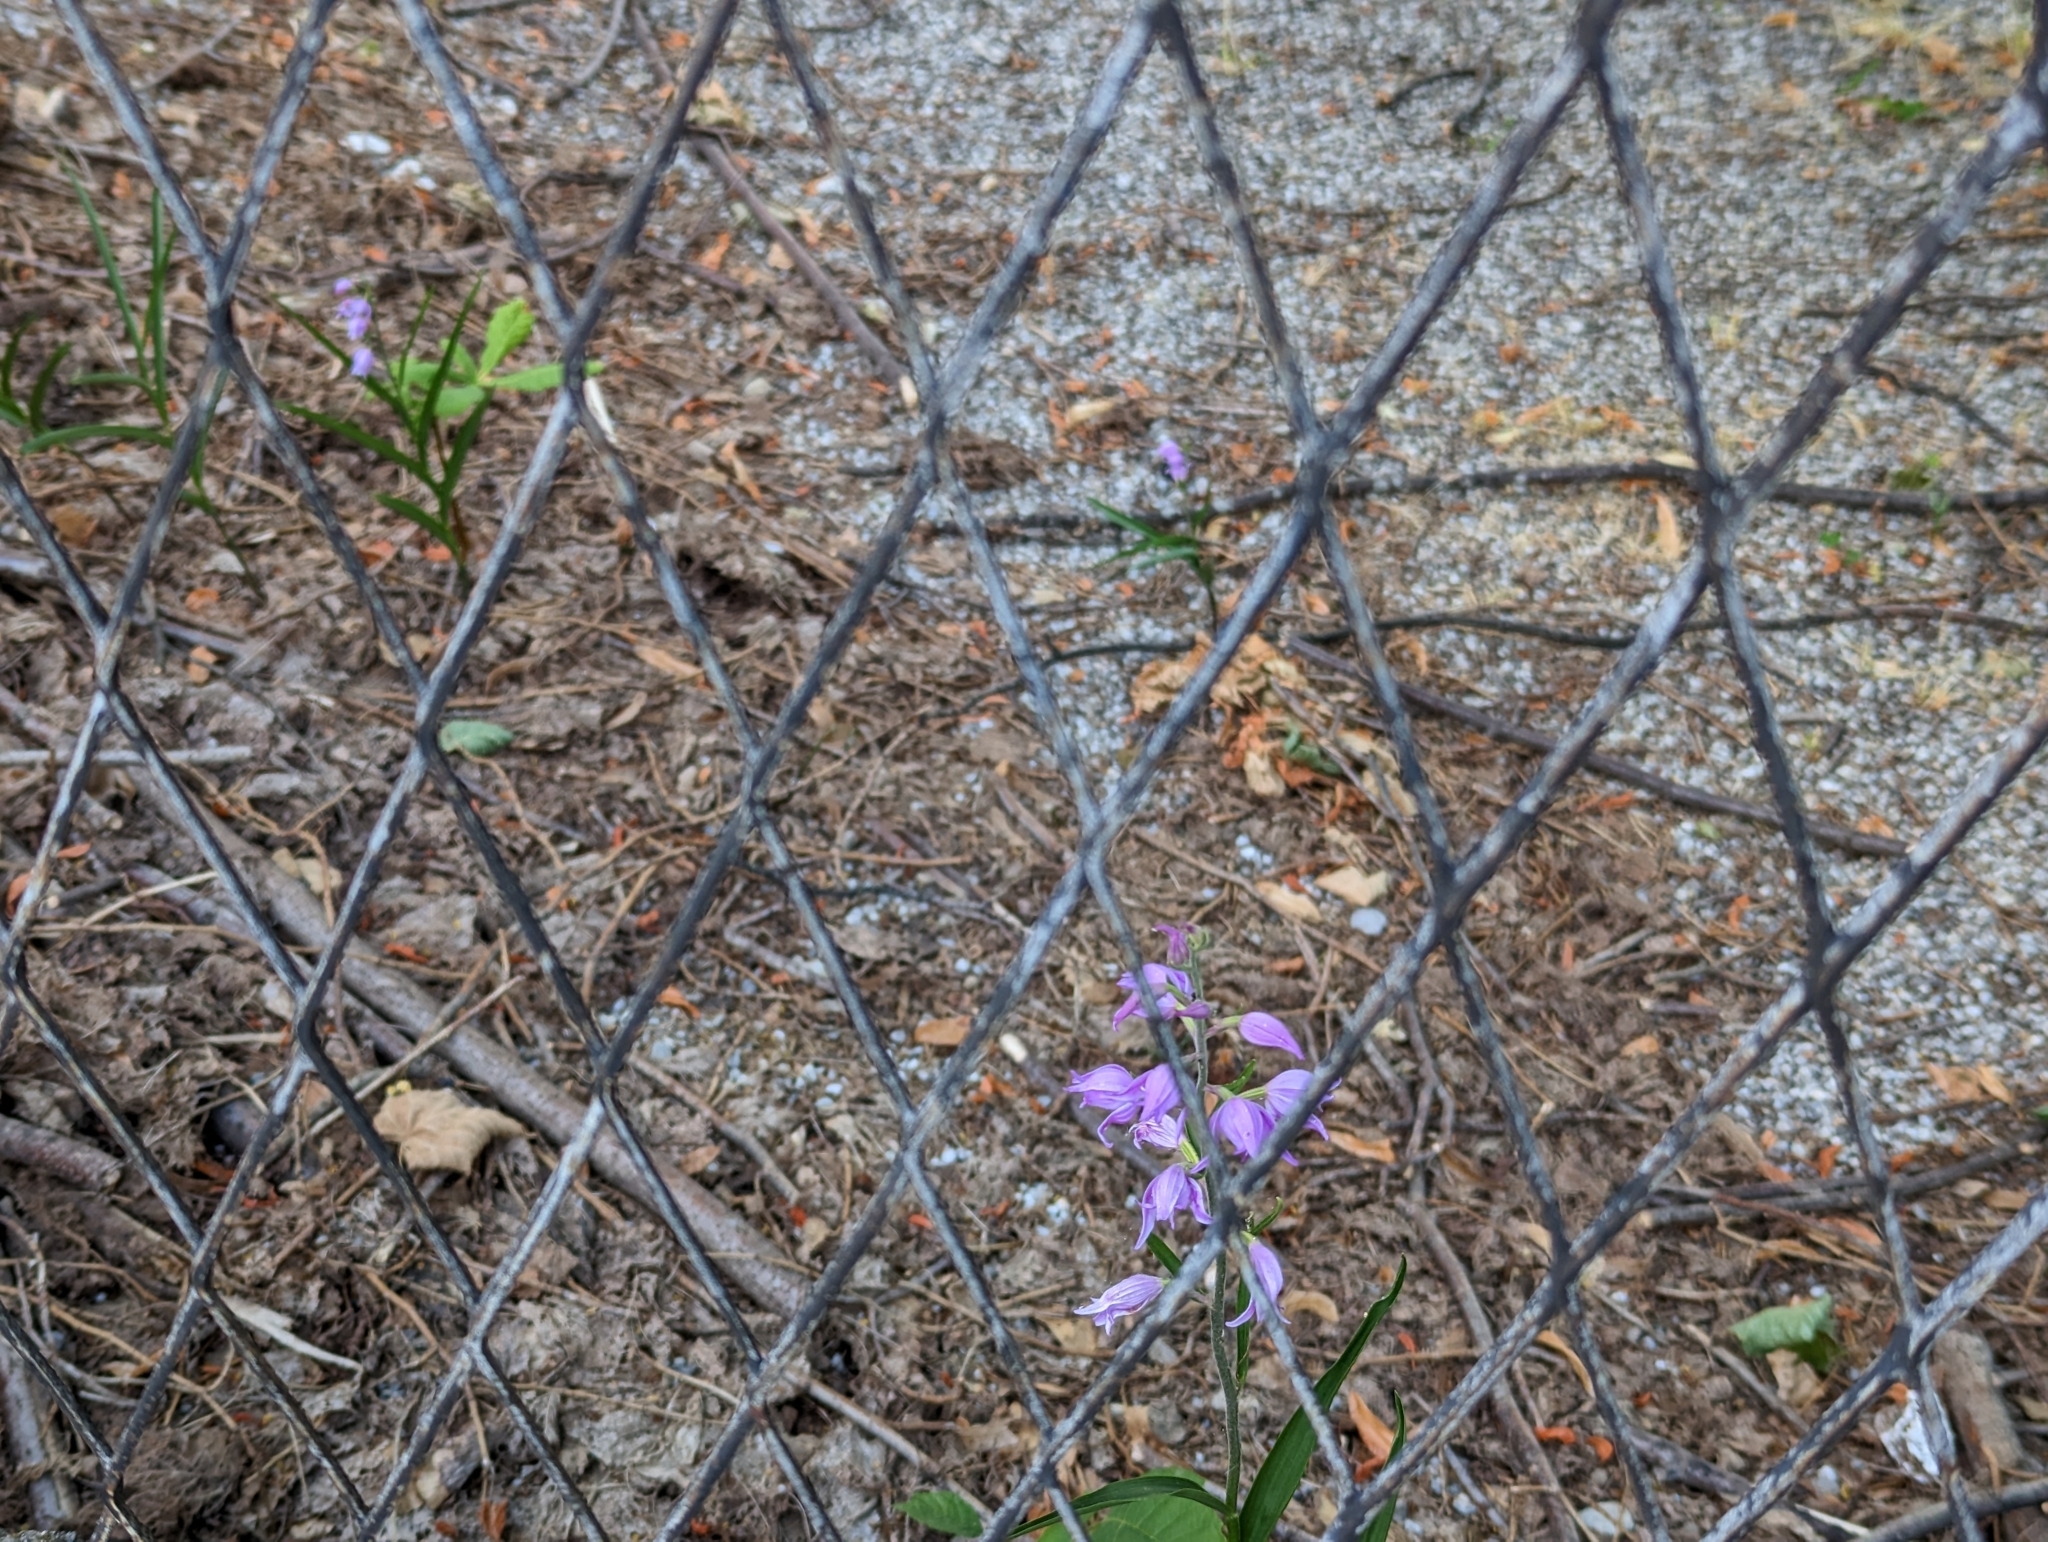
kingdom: Plantae
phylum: Tracheophyta
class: Liliopsida
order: Asparagales
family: Orchidaceae
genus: Cephalanthera
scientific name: Cephalanthera rubra
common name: Red helleborine
